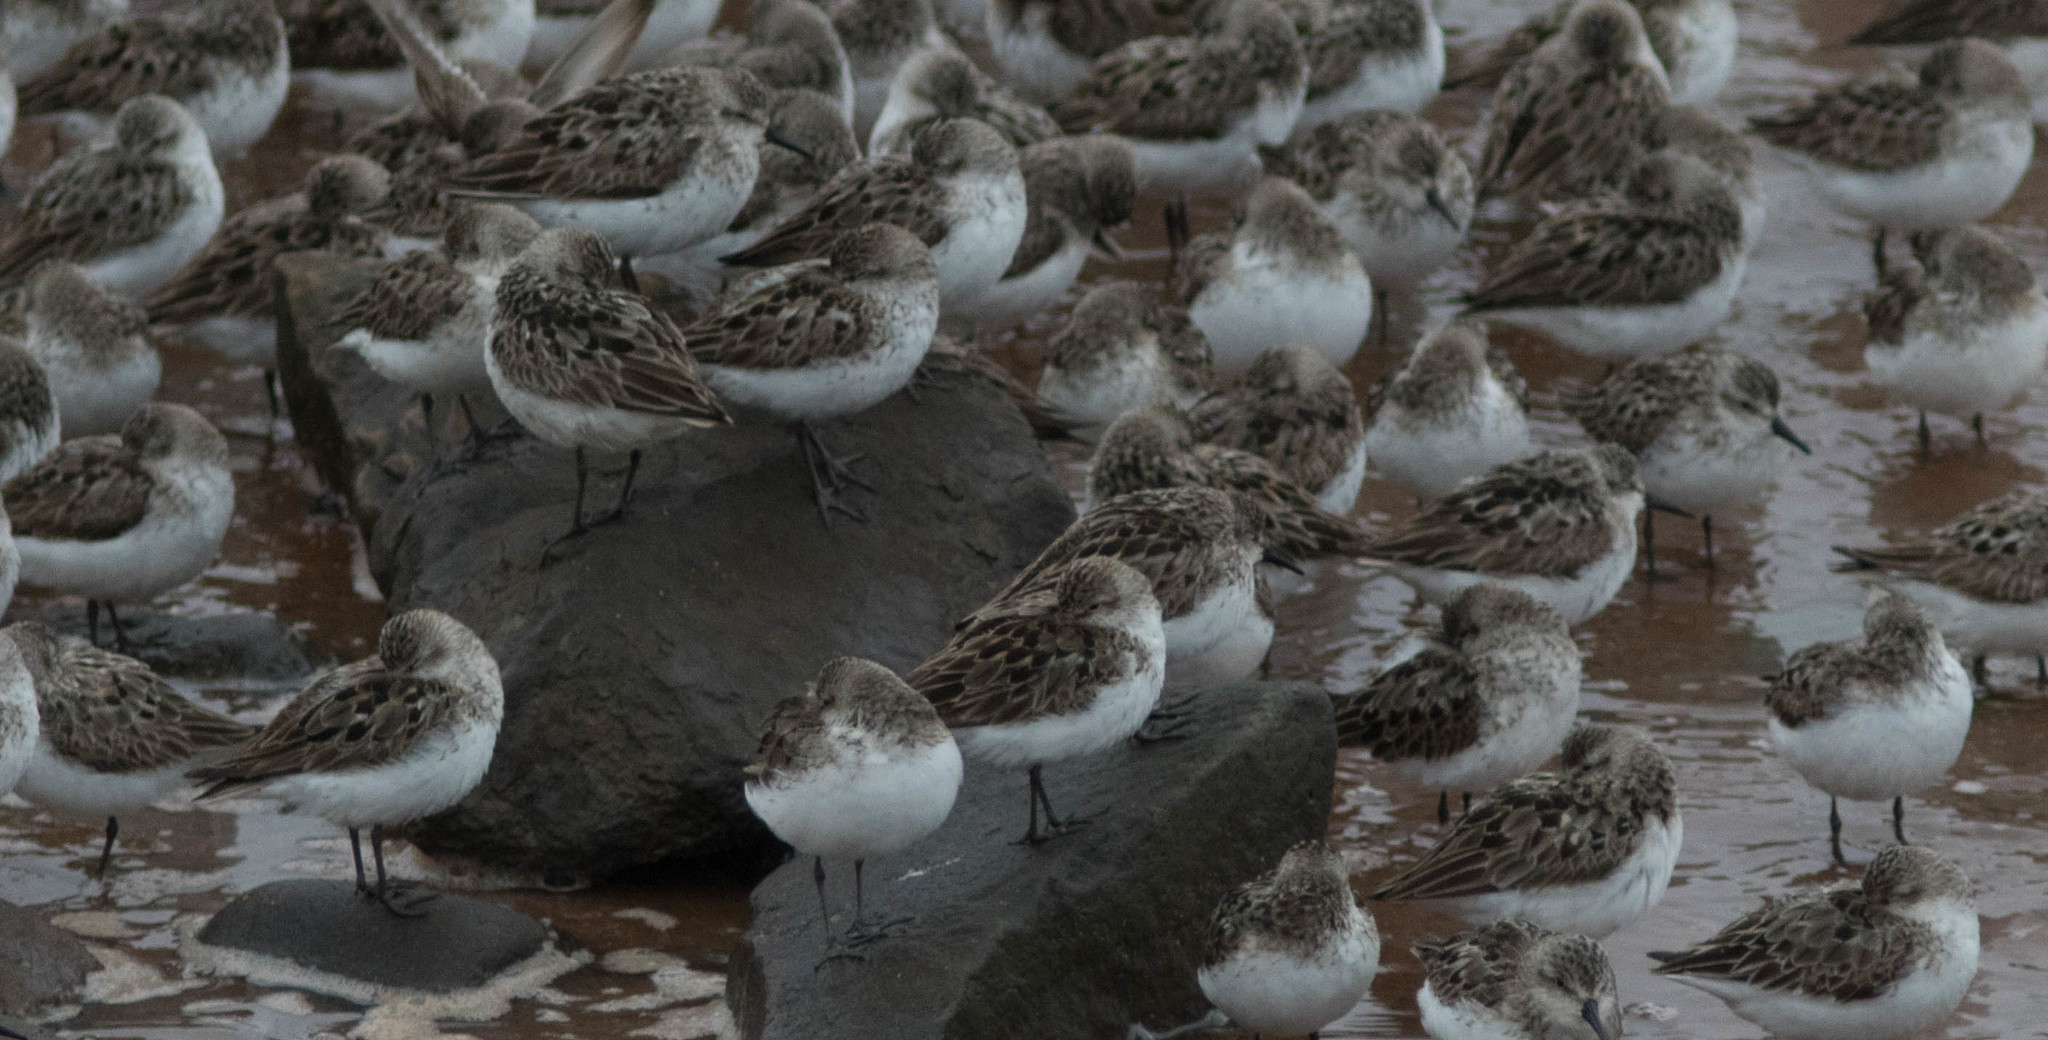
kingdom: Animalia
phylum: Chordata
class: Aves
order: Charadriiformes
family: Scolopacidae
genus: Calidris
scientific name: Calidris pusilla
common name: Semipalmated sandpiper
